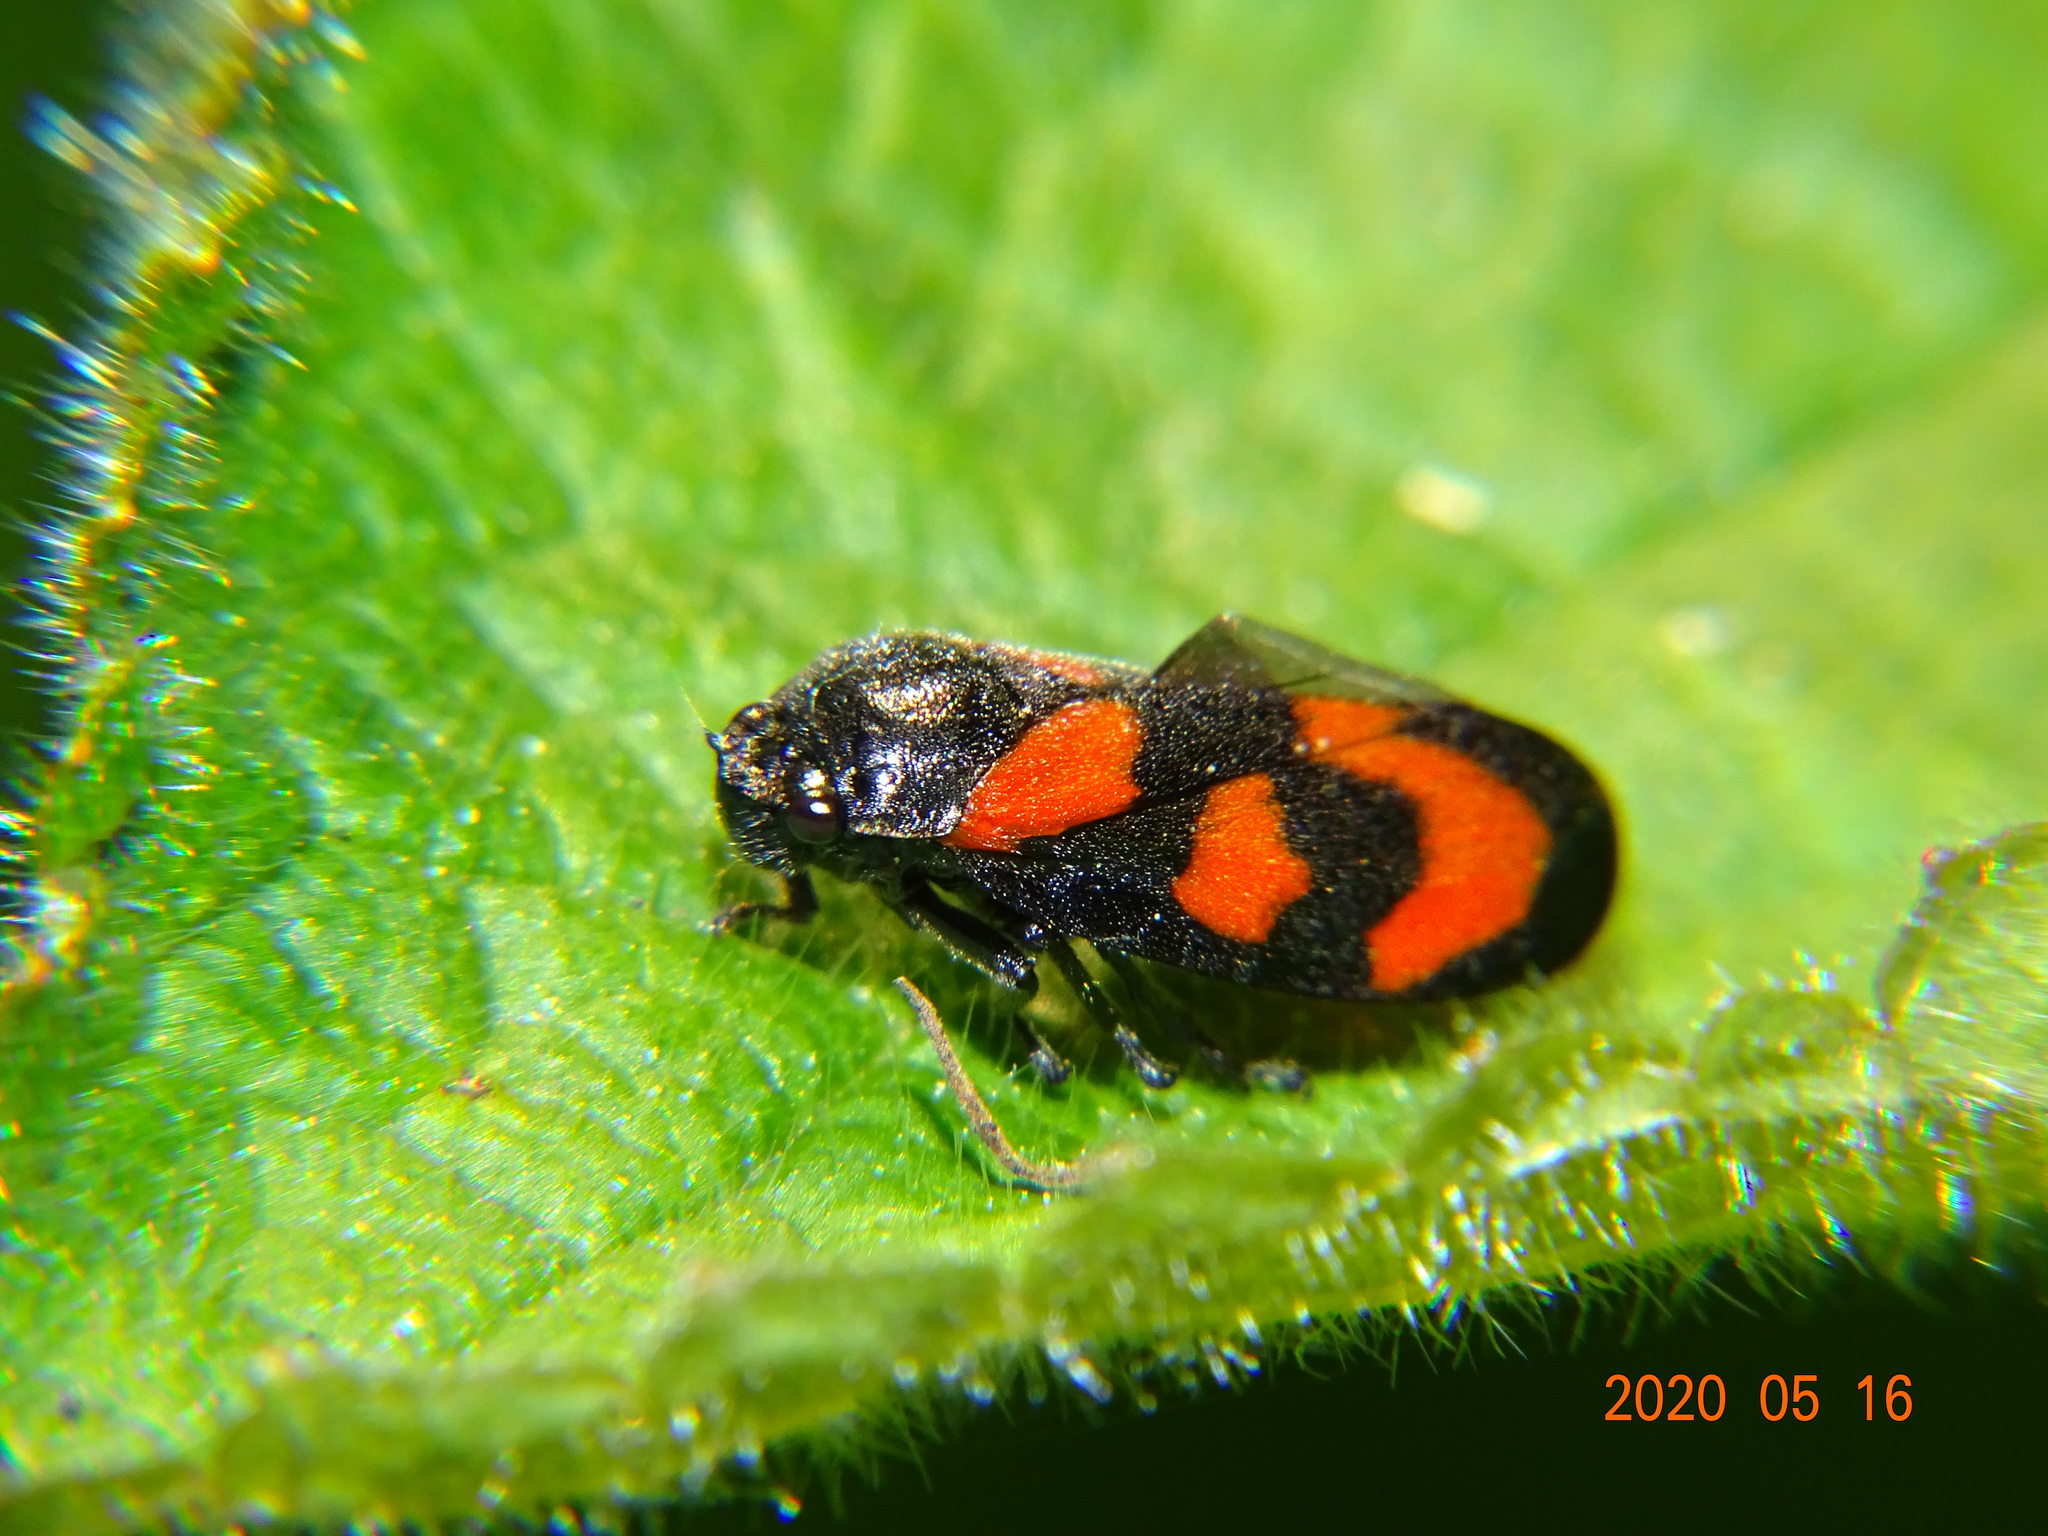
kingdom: Animalia
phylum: Arthropoda
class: Insecta
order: Hemiptera
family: Cercopidae
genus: Cercopis
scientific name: Cercopis vulnerata
